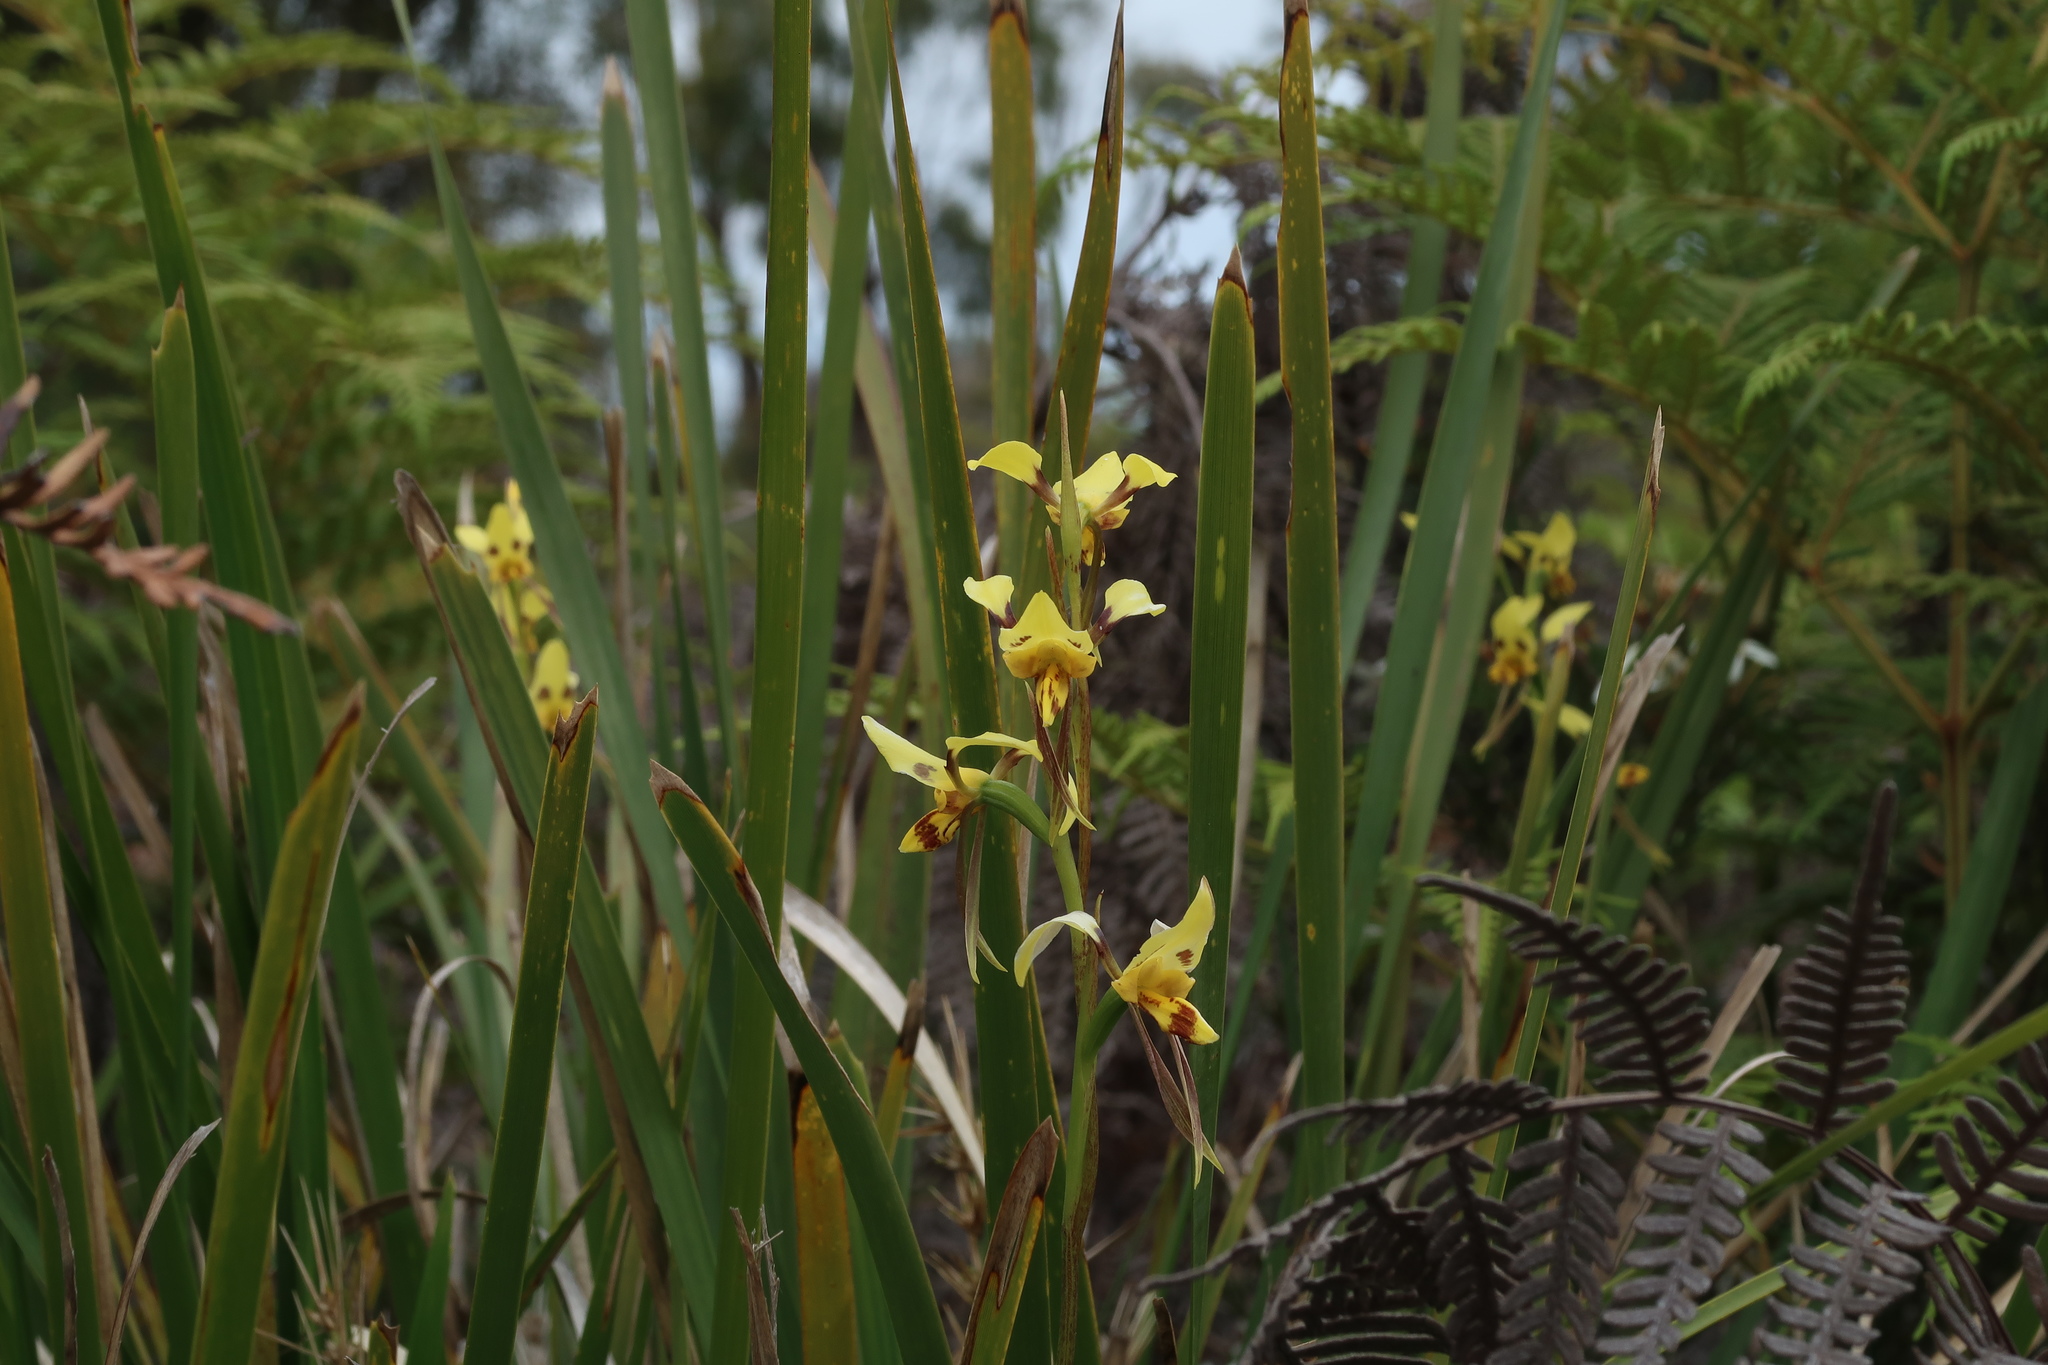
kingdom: Plantae
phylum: Tracheophyta
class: Liliopsida
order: Asparagales
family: Orchidaceae
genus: Diuris
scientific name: Diuris sulphurea
